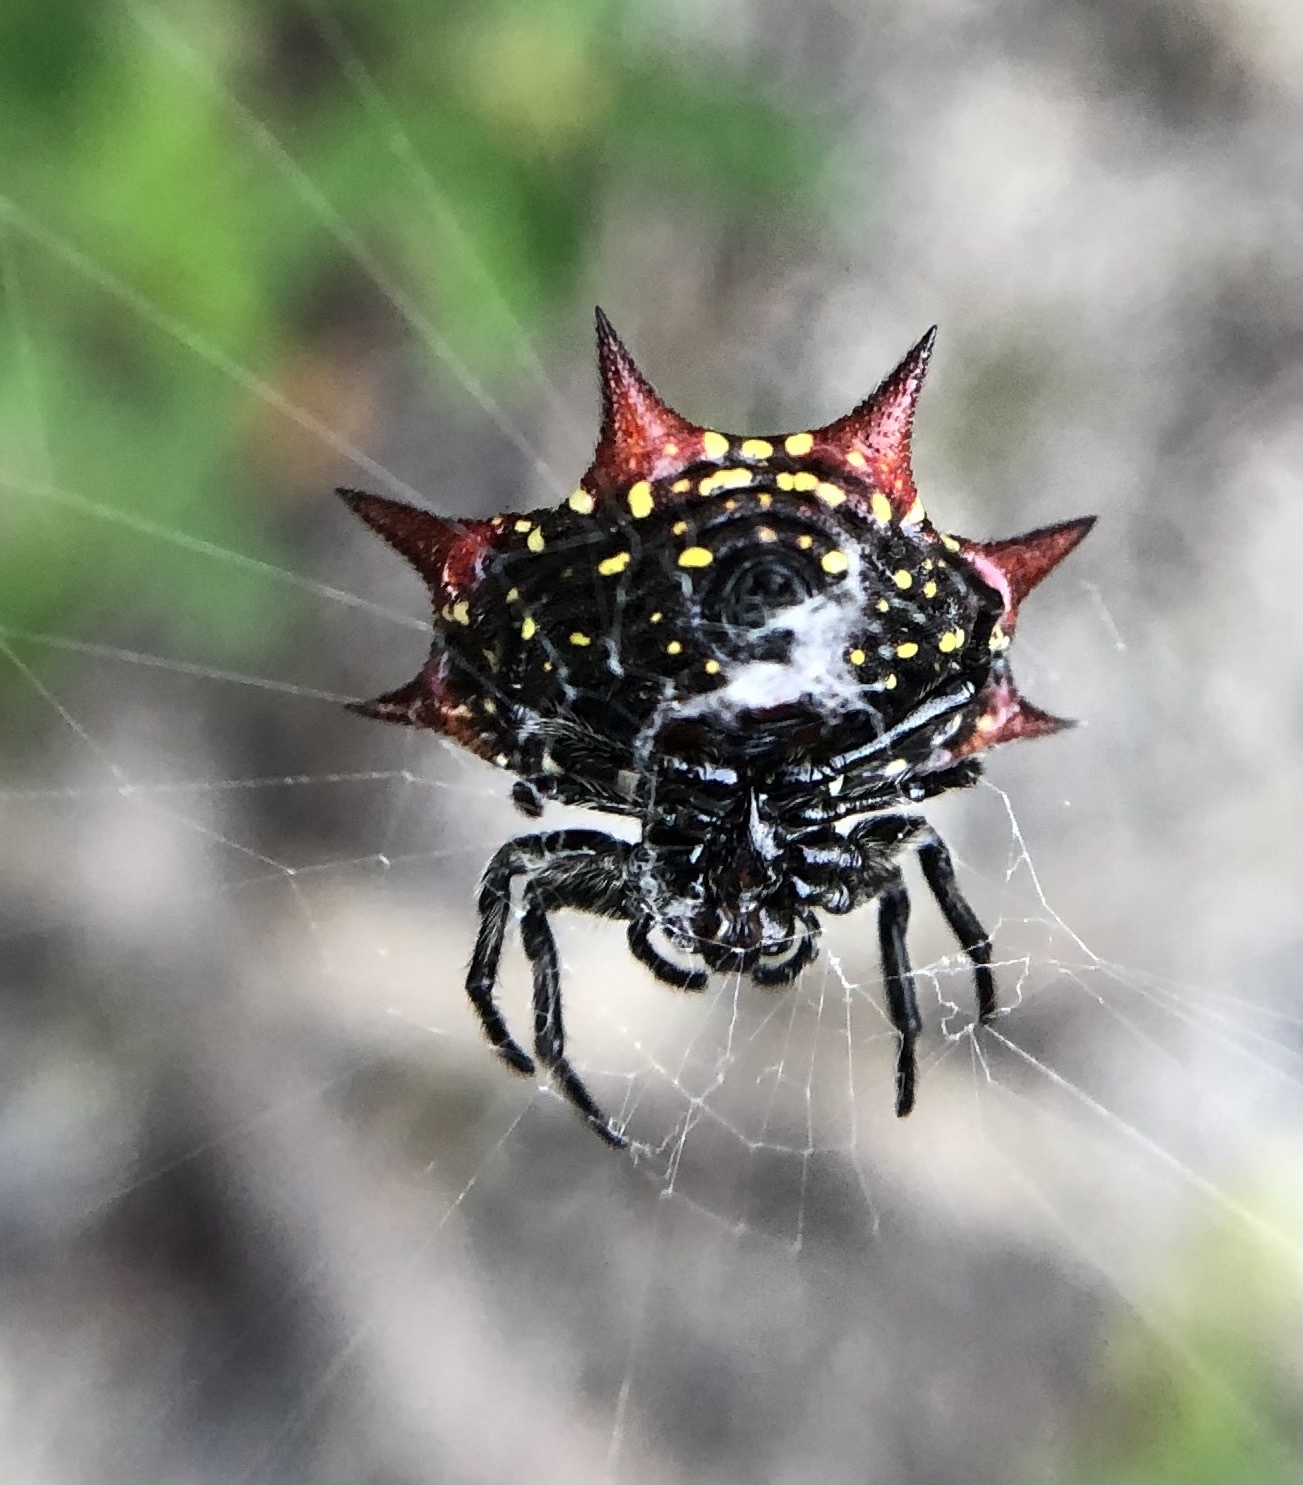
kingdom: Animalia
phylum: Arthropoda
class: Arachnida
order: Araneae
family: Araneidae
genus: Gasteracantha
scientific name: Gasteracantha cancriformis
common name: Orb weavers
